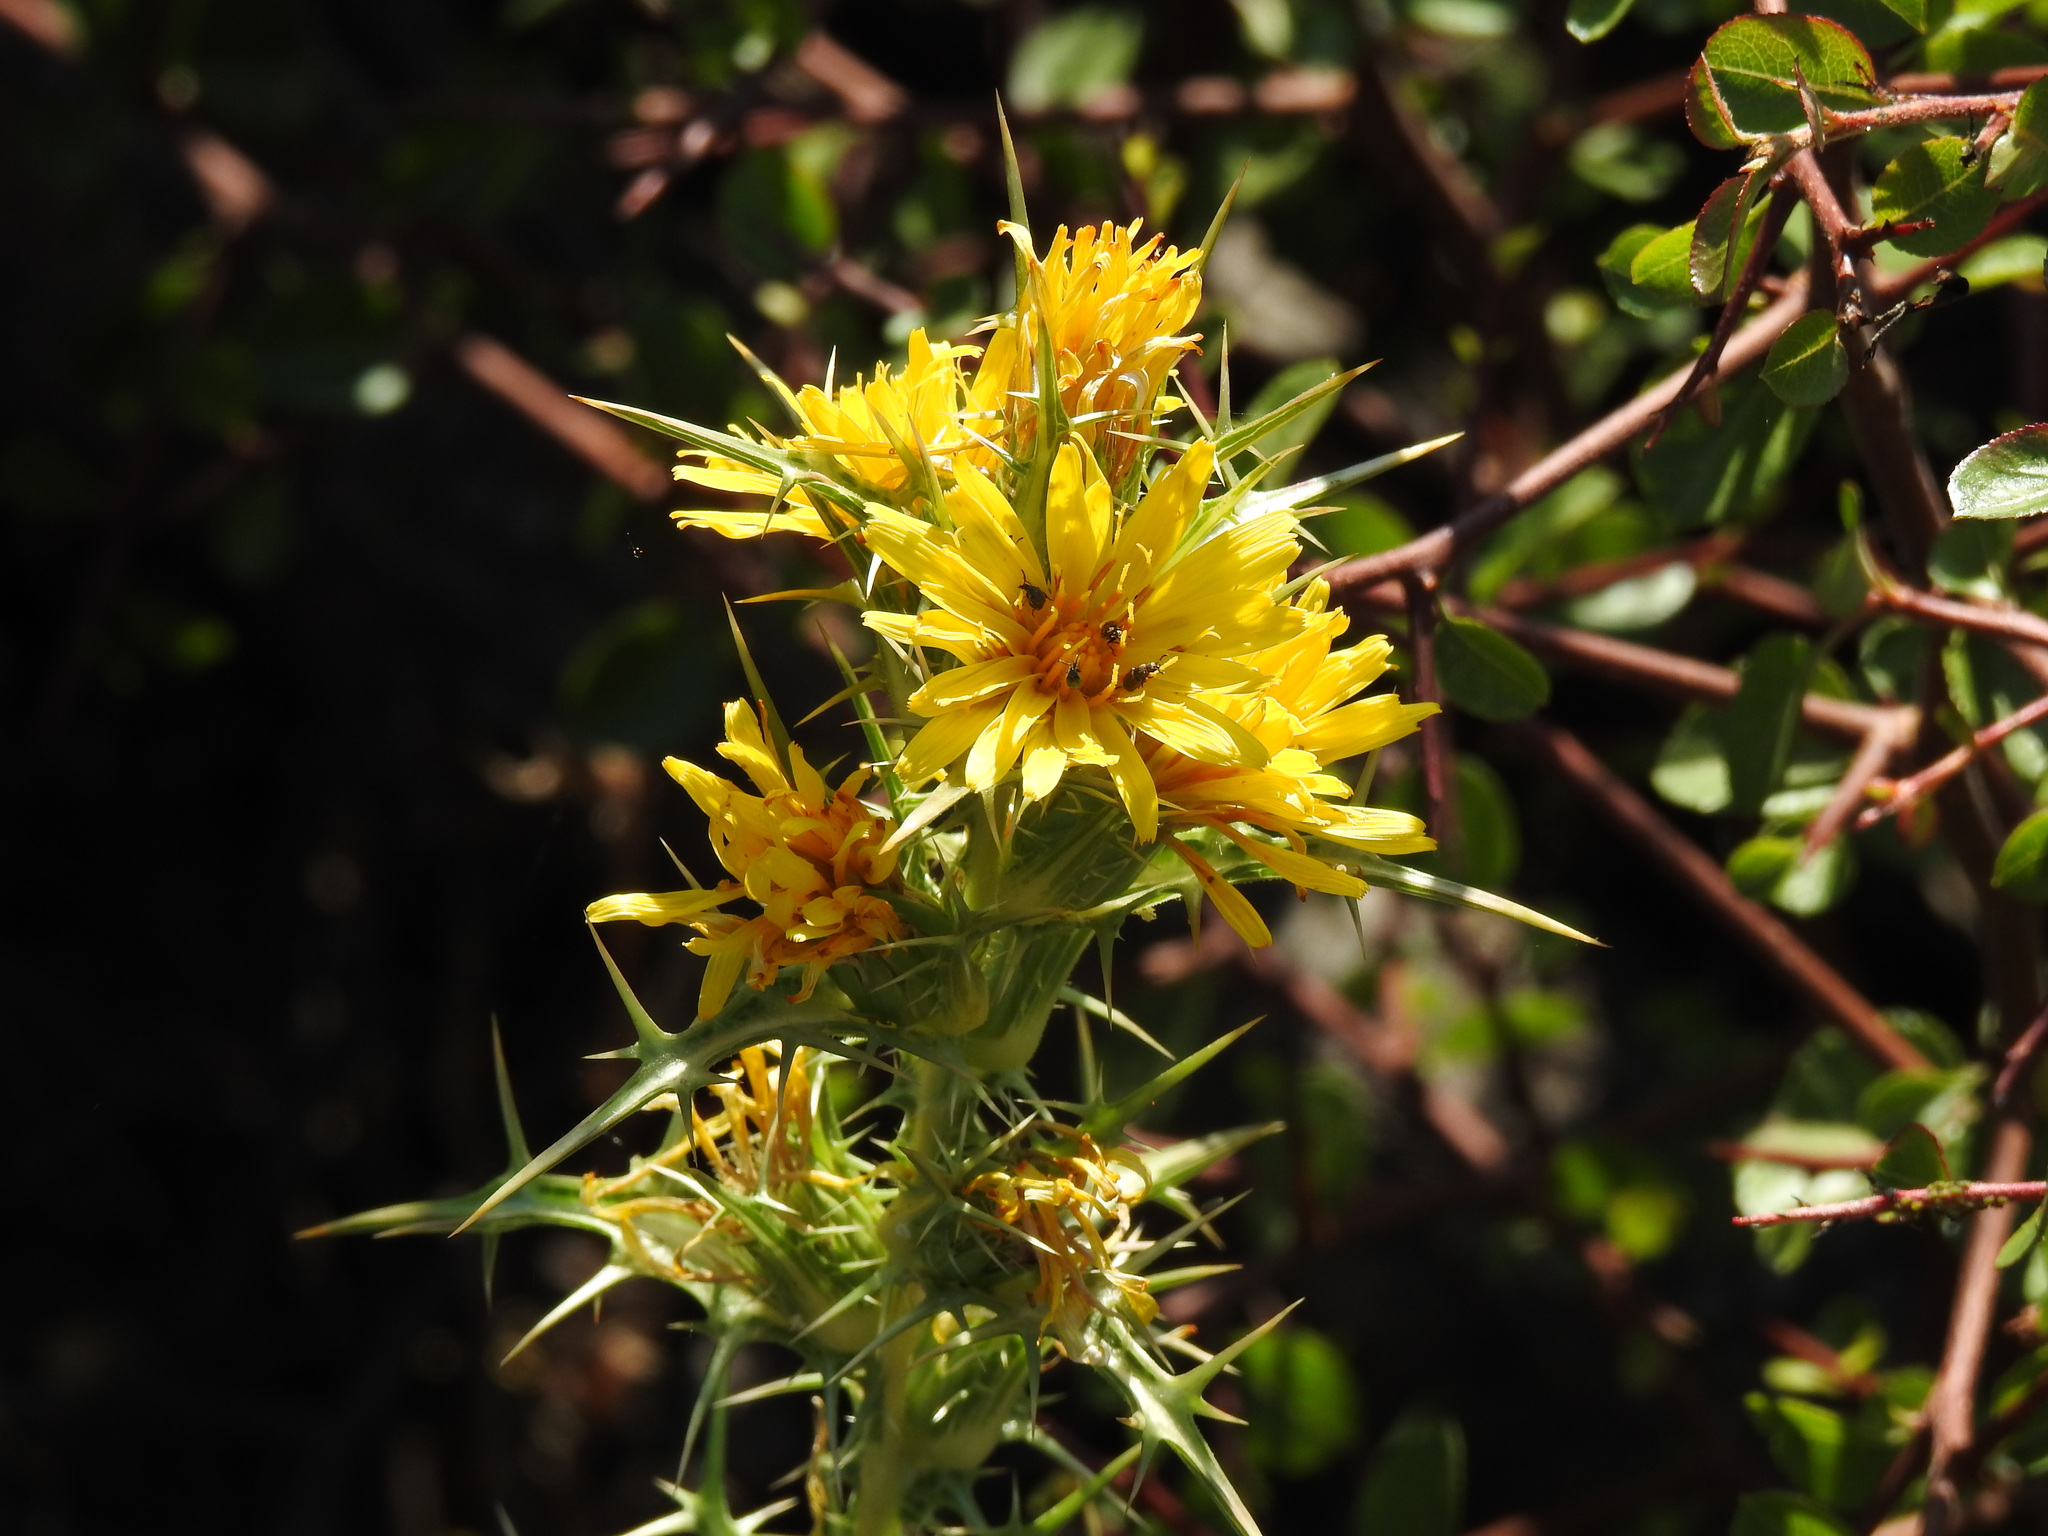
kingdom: Plantae
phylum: Tracheophyta
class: Magnoliopsida
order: Asterales
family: Asteraceae
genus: Scolymus
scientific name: Scolymus hispanicus
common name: Golden thistle
